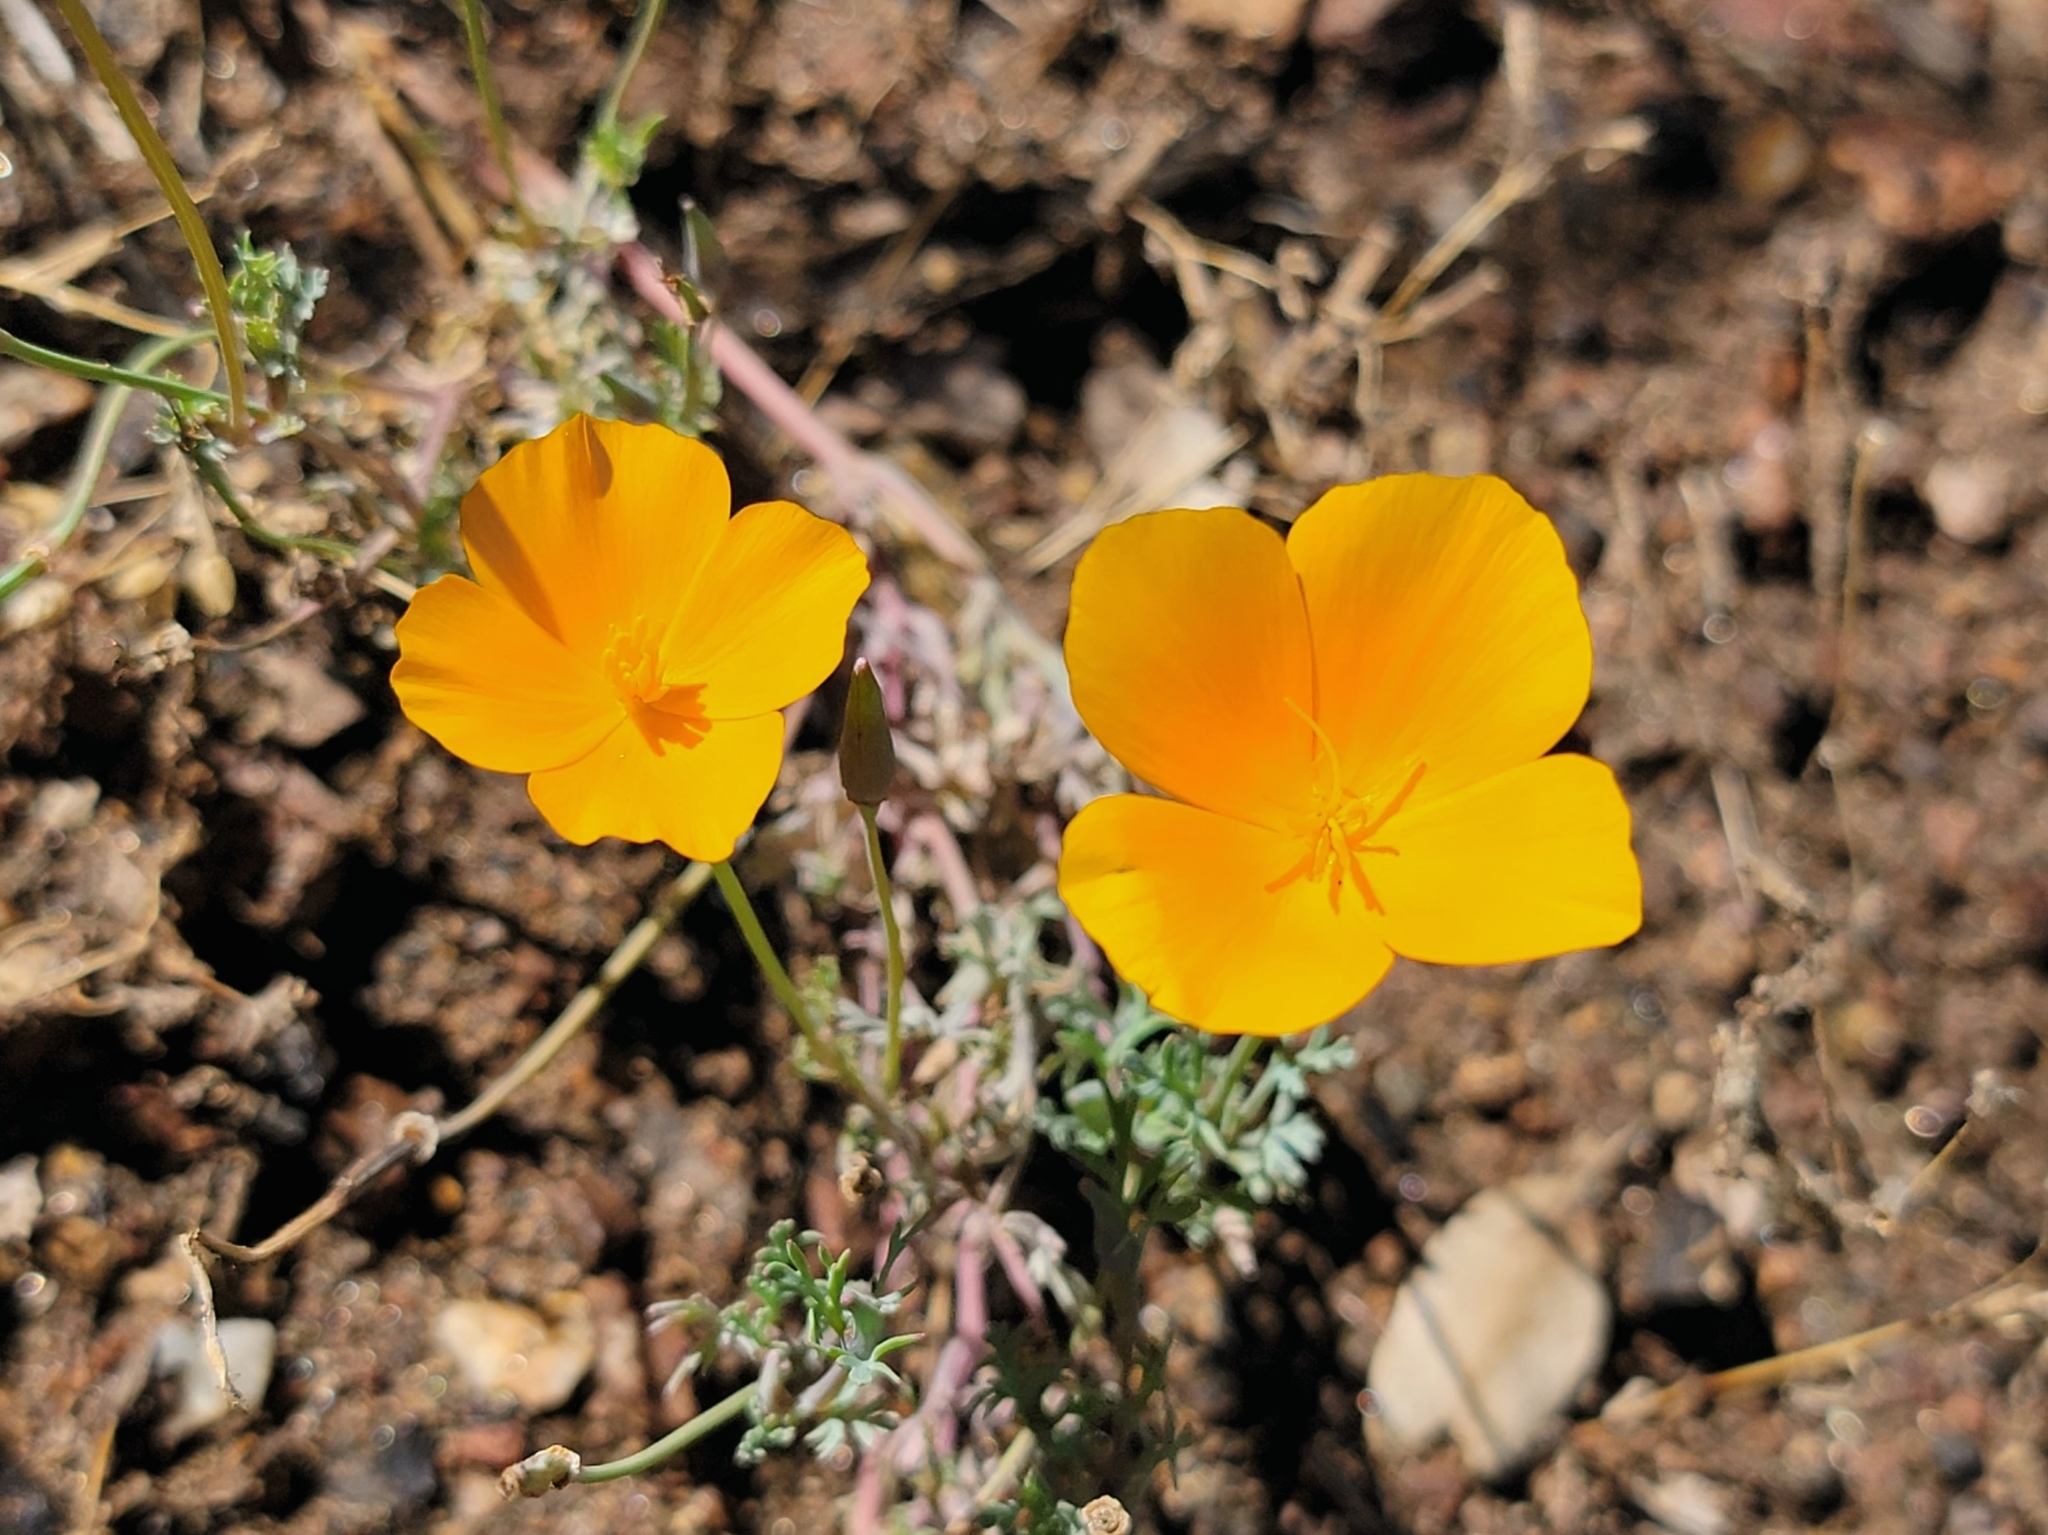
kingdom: Plantae
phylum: Tracheophyta
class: Magnoliopsida
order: Ranunculales
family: Papaveraceae
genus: Eschscholzia
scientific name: Eschscholzia californica
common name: California poppy
